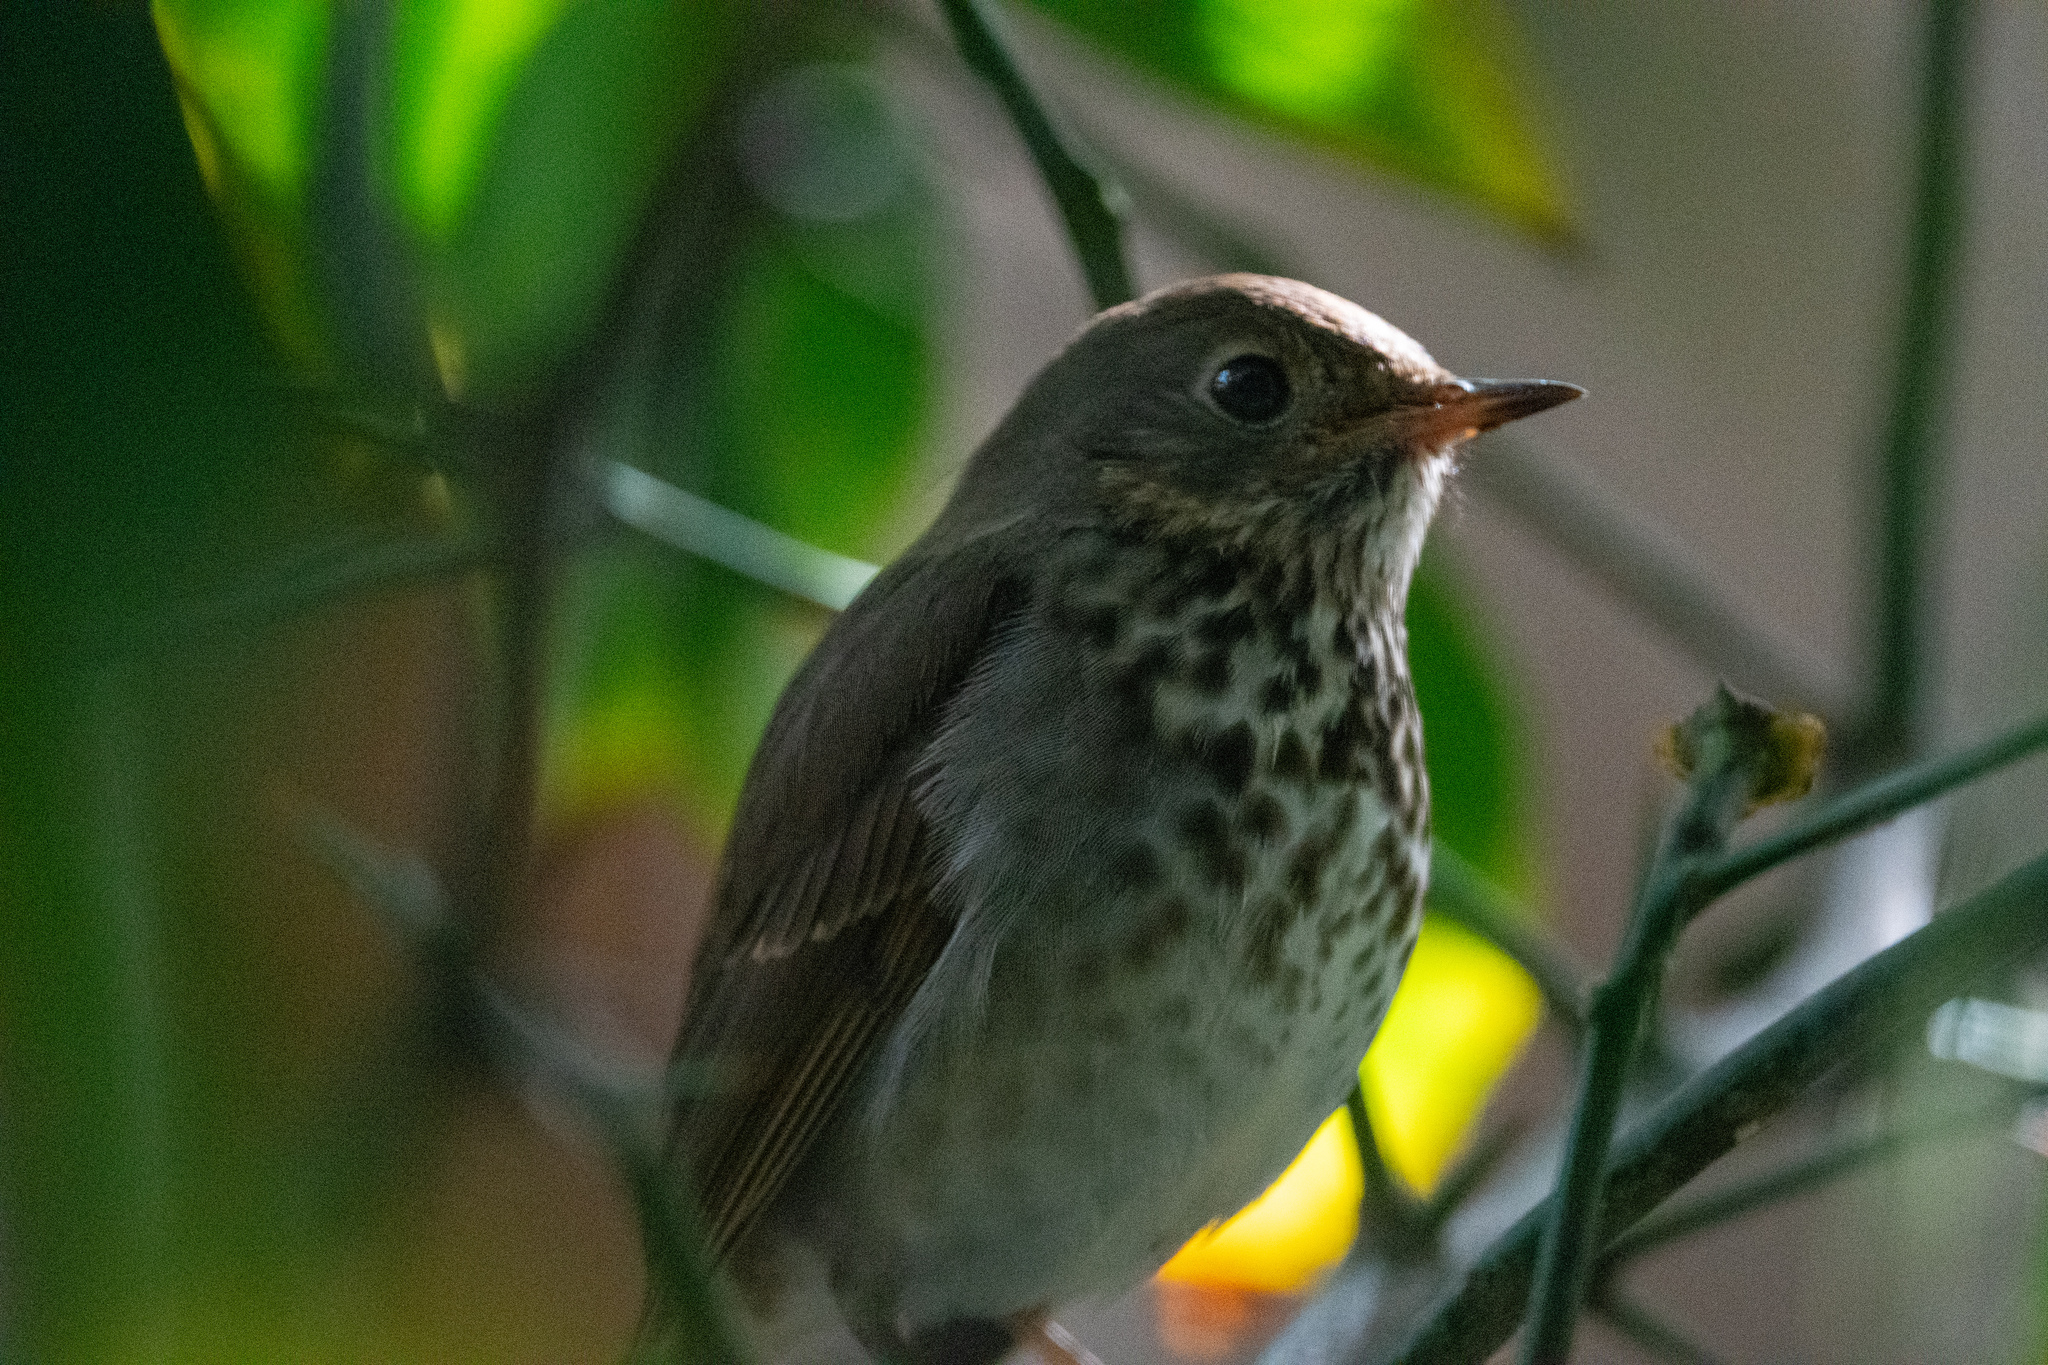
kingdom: Animalia
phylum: Chordata
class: Aves
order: Passeriformes
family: Turdidae
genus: Catharus
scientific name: Catharus guttatus
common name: Hermit thrush
